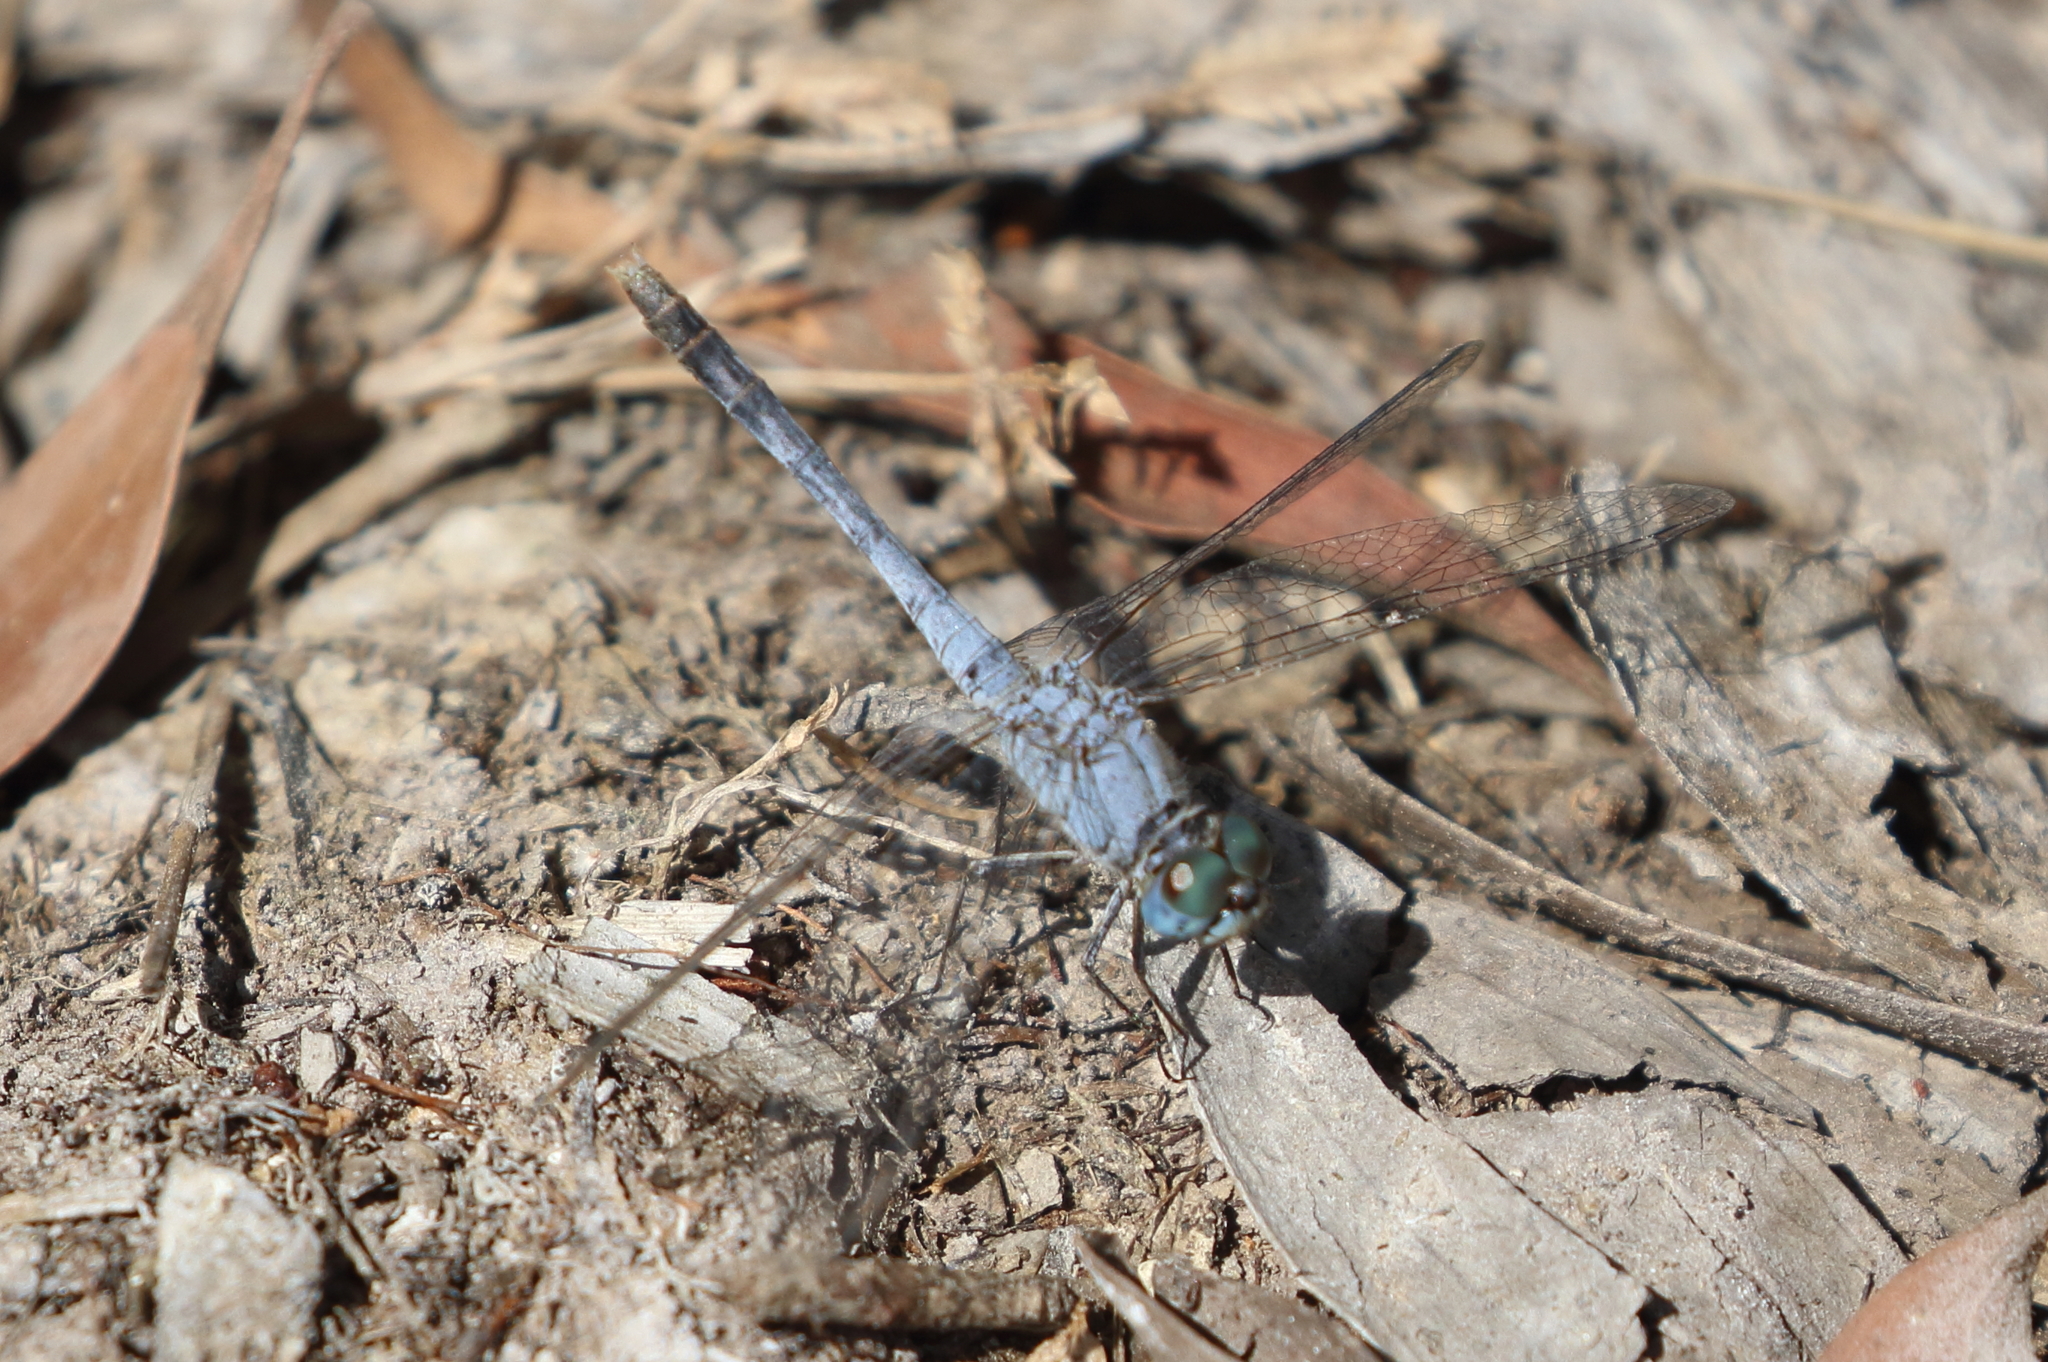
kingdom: Animalia
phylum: Arthropoda
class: Insecta
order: Odonata
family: Libellulidae
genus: Diplacodes
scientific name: Diplacodes trivialis
